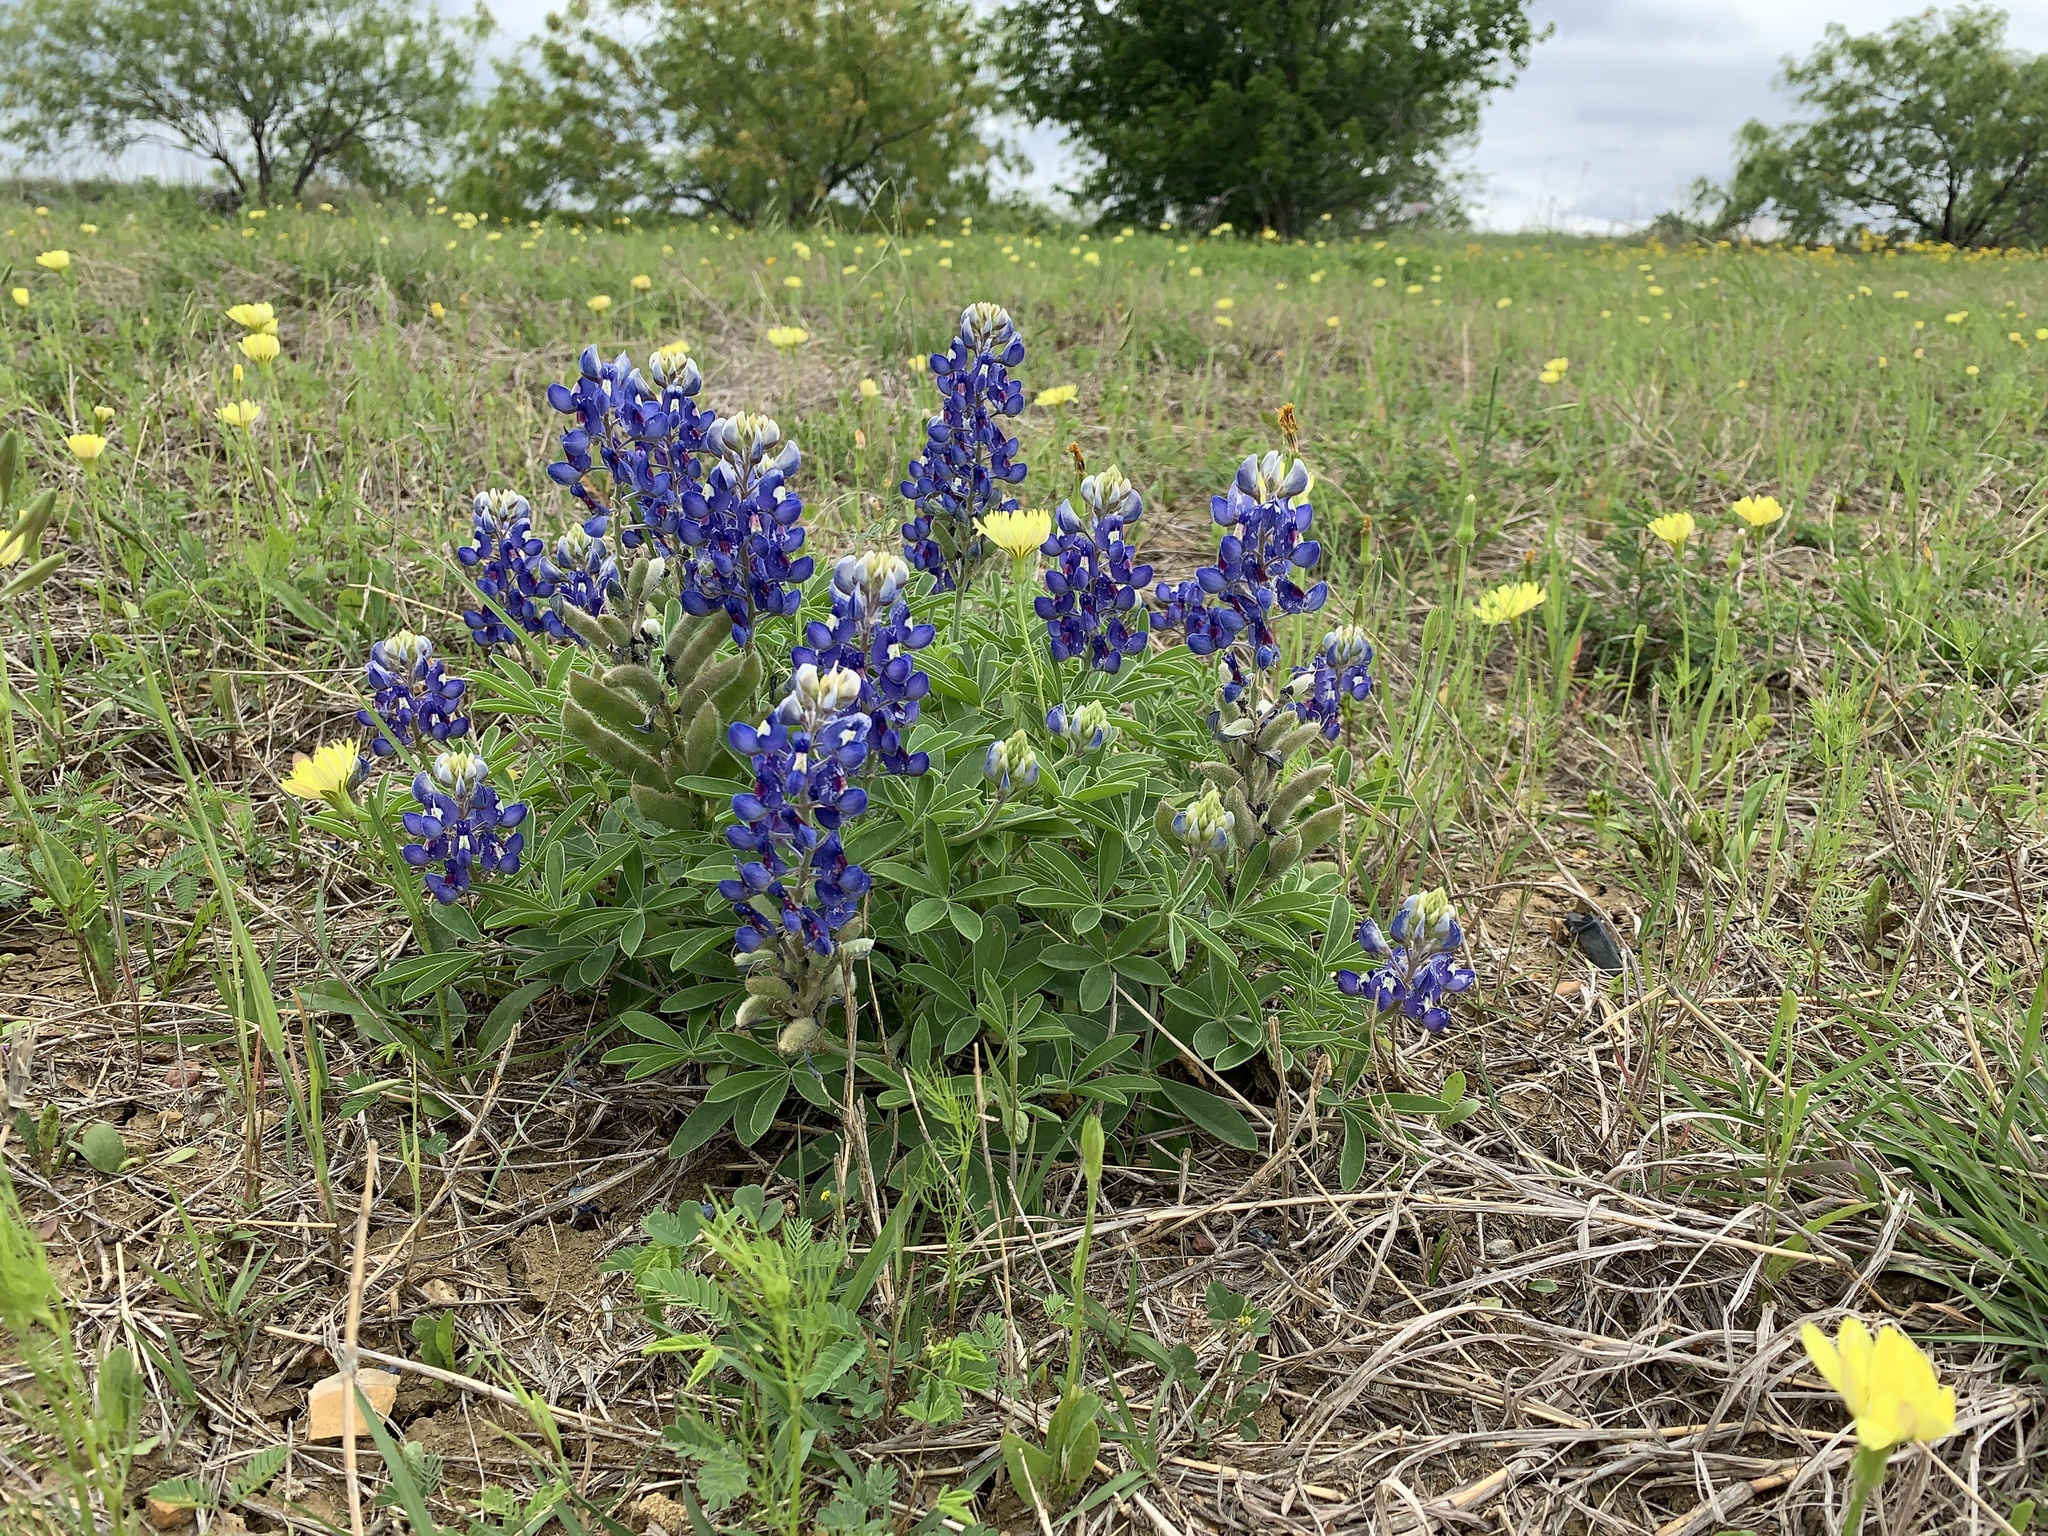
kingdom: Plantae
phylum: Tracheophyta
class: Magnoliopsida
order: Fabales
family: Fabaceae
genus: Lupinus
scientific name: Lupinus texensis
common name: Texas bluebonnet
